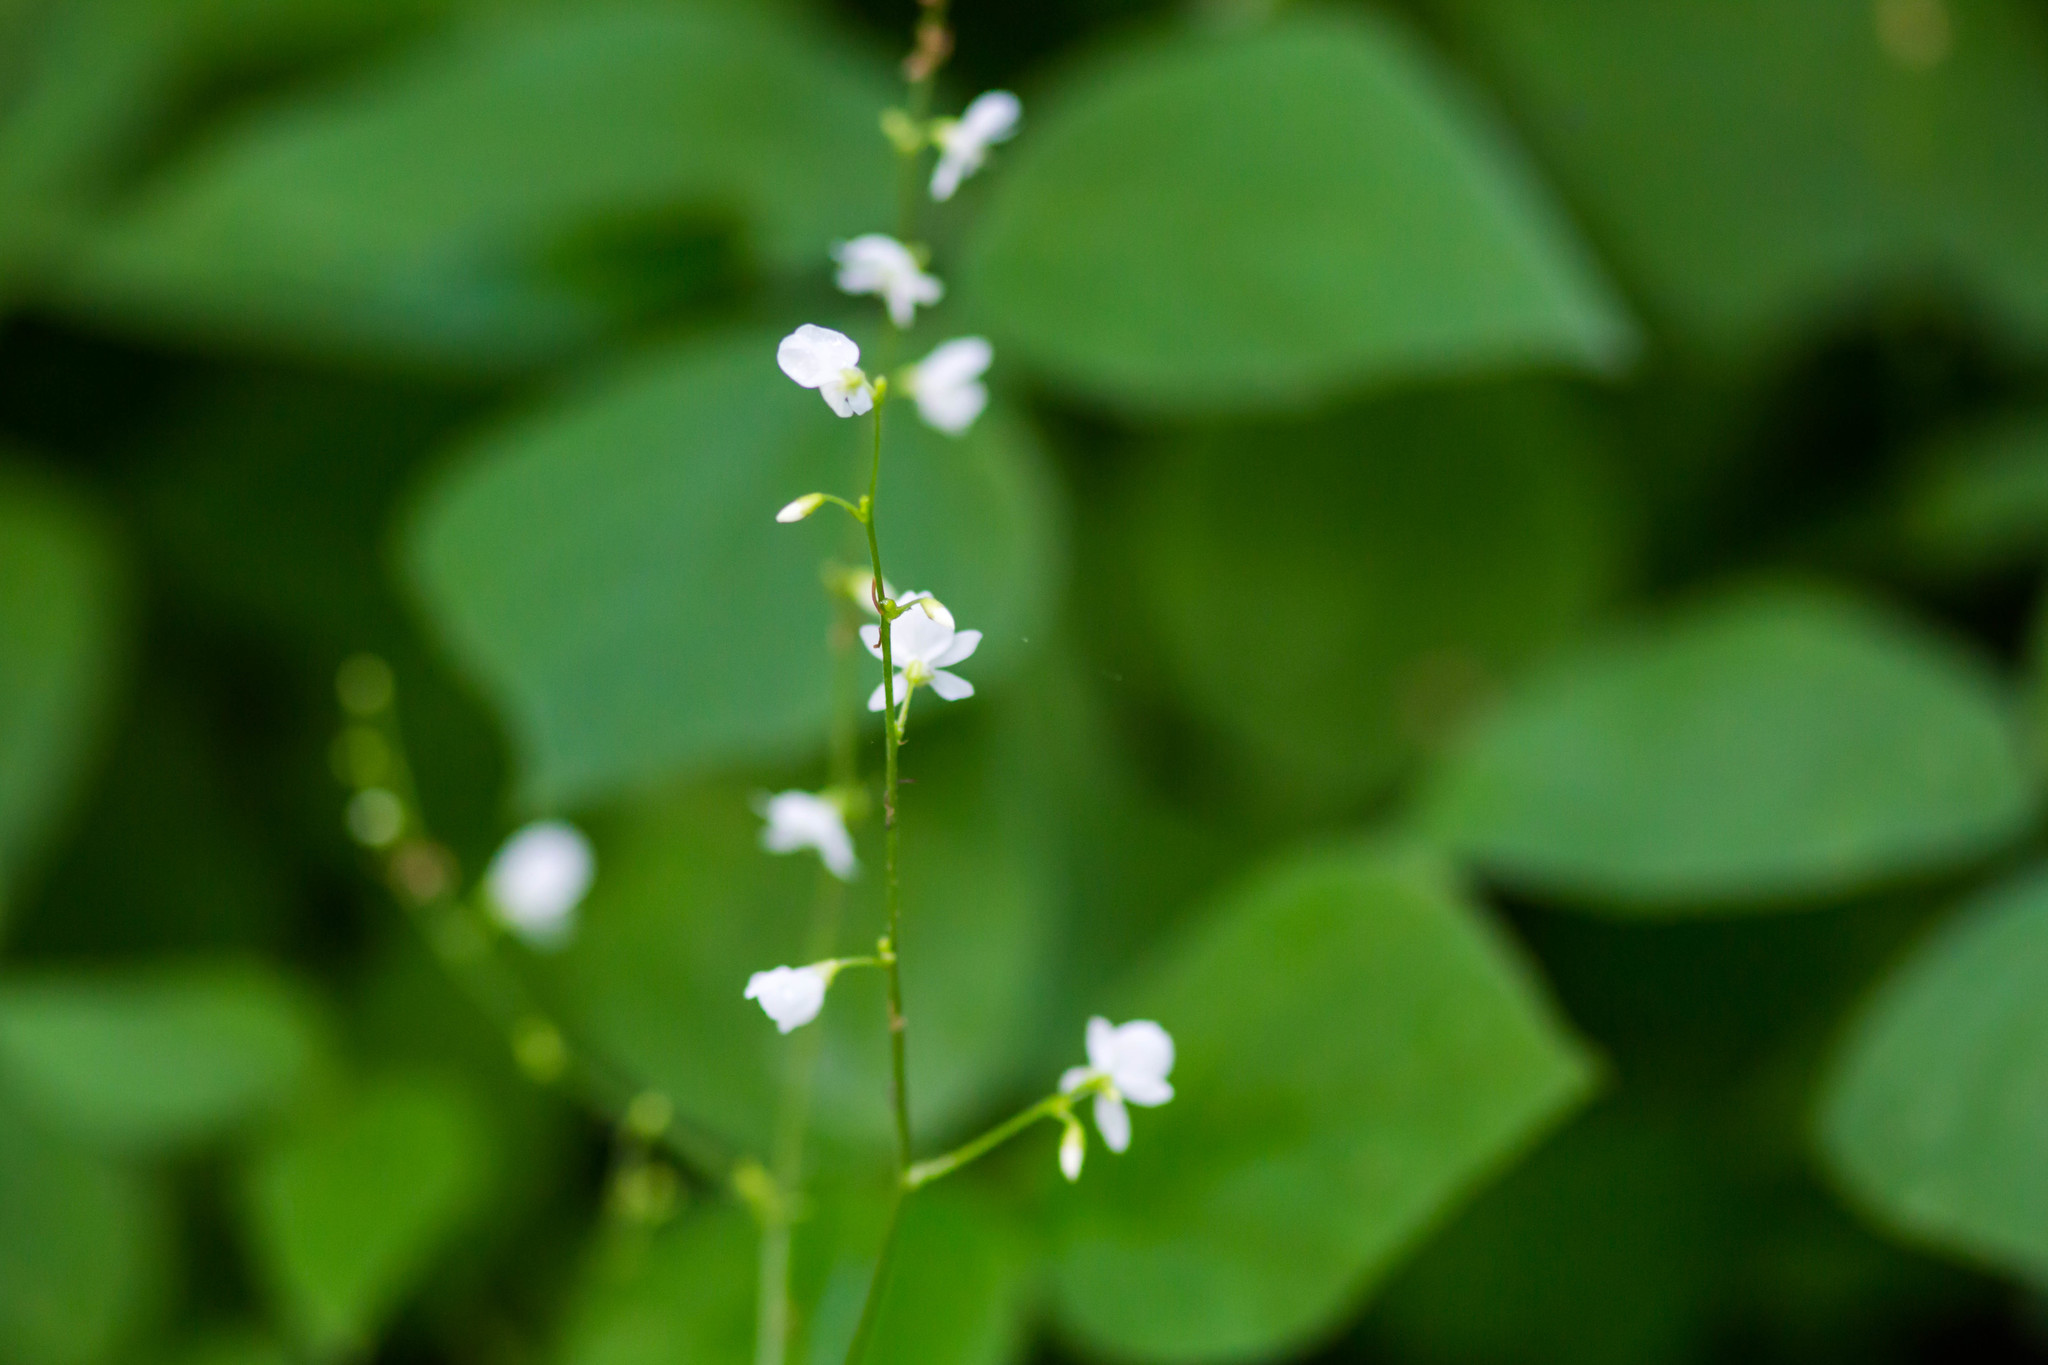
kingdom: Plantae
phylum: Tracheophyta
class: Magnoliopsida
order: Fabales
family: Fabaceae
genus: Hylodesmum
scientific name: Hylodesmum pauciflorum
